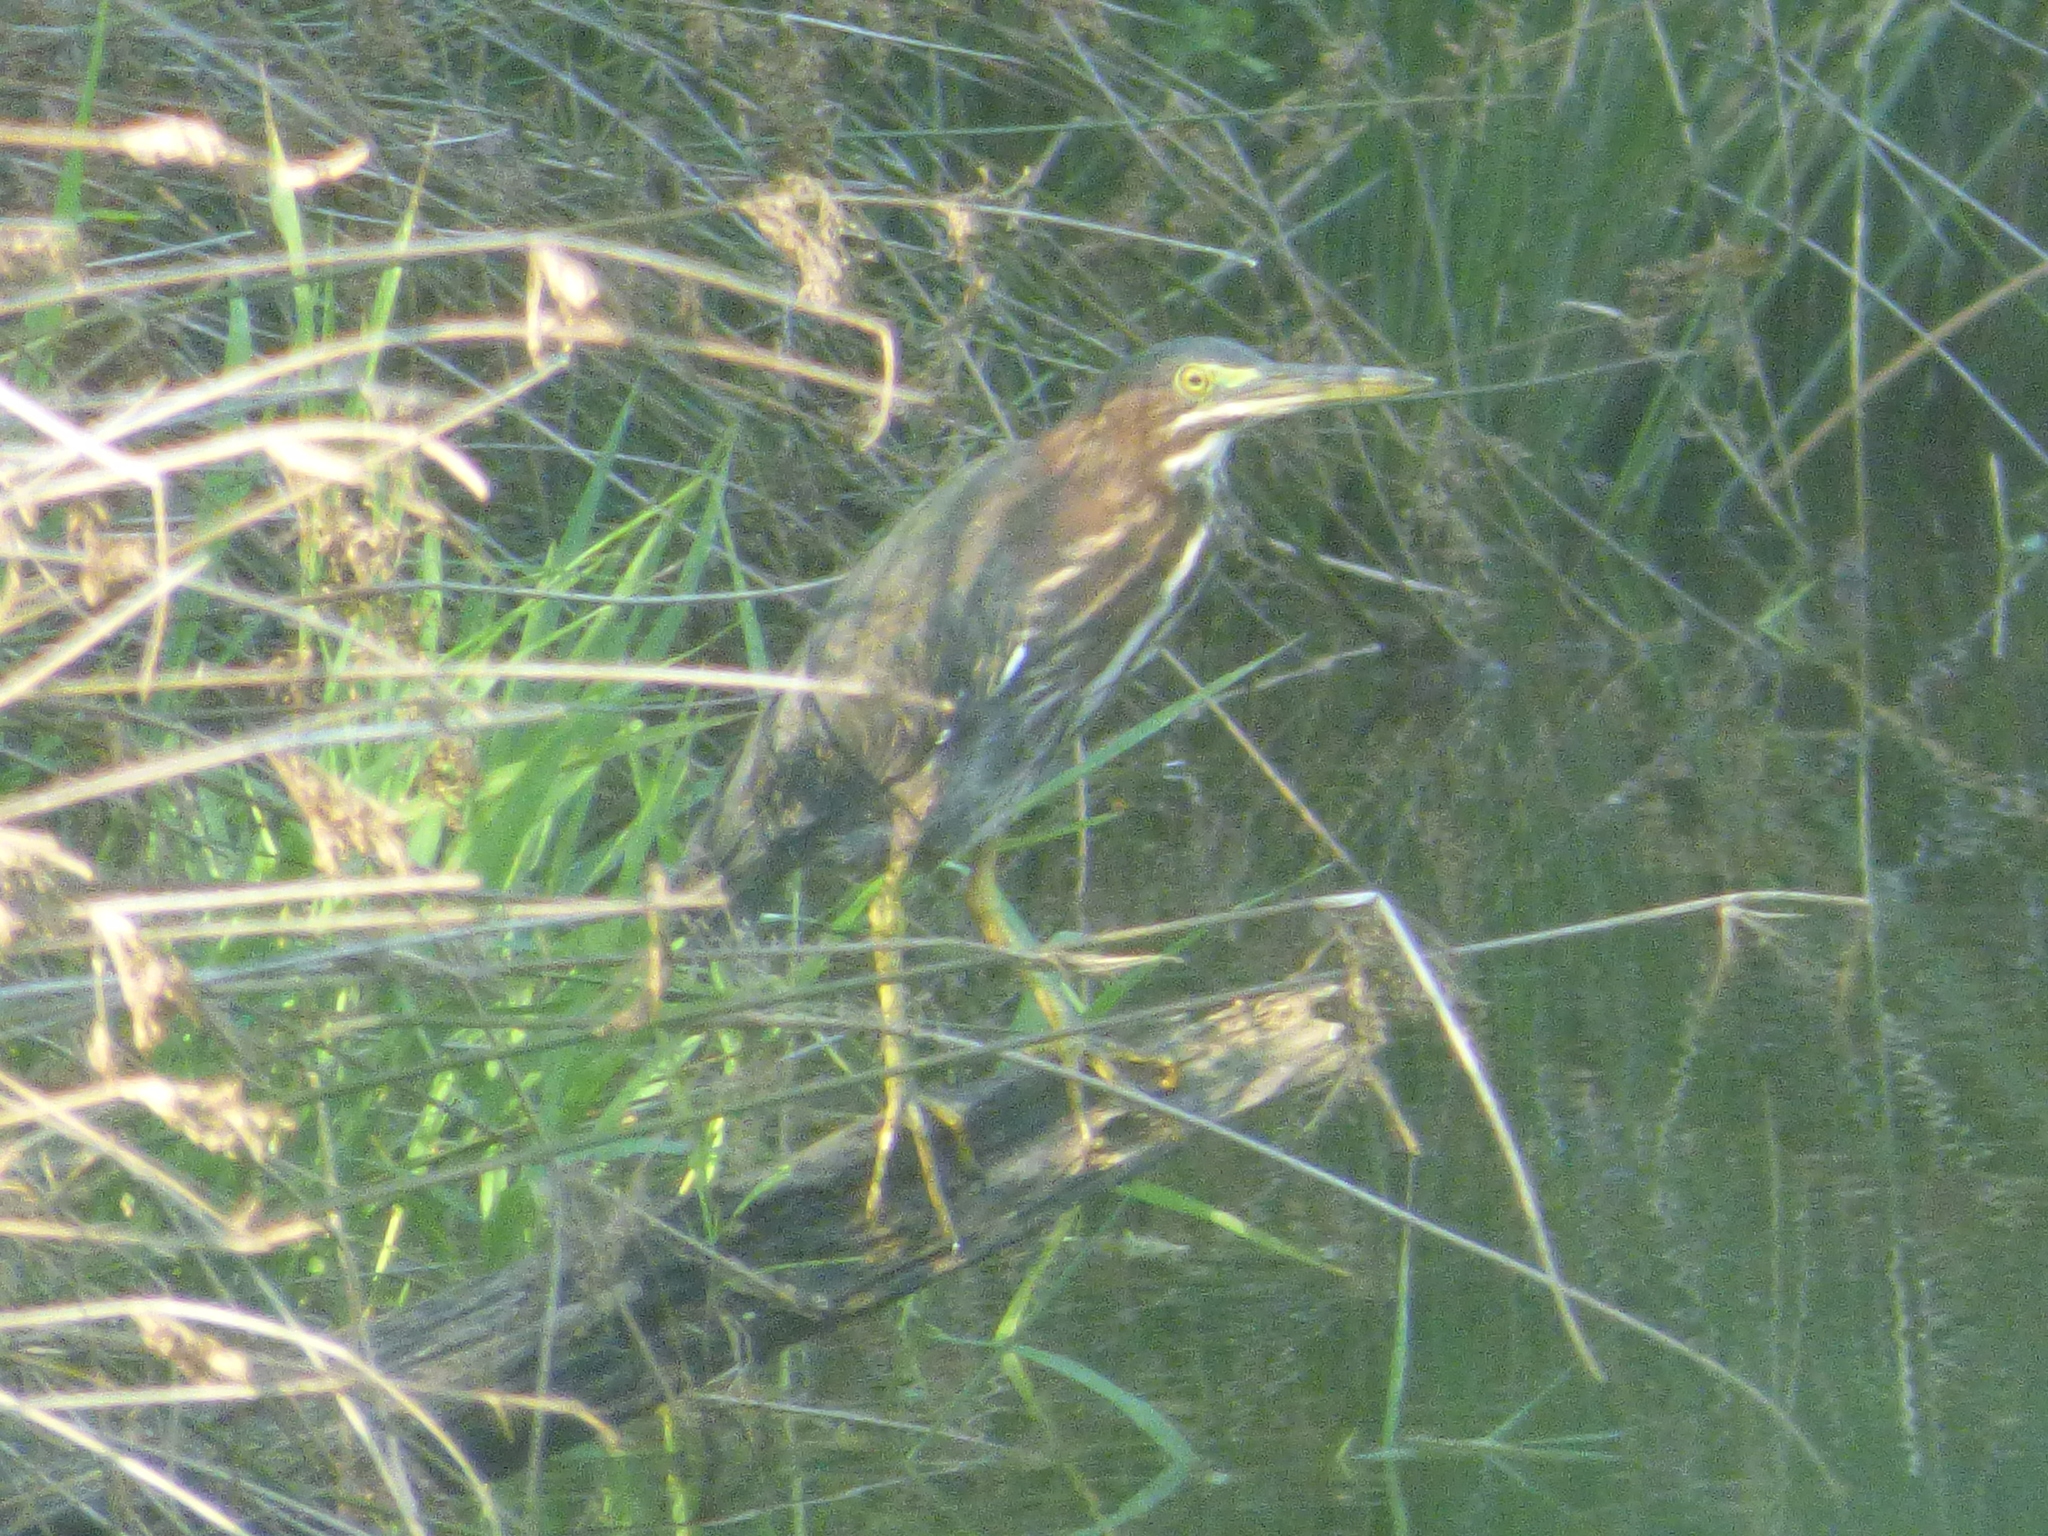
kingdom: Animalia
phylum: Chordata
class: Aves
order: Pelecaniformes
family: Ardeidae
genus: Butorides
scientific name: Butorides virescens
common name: Green heron
